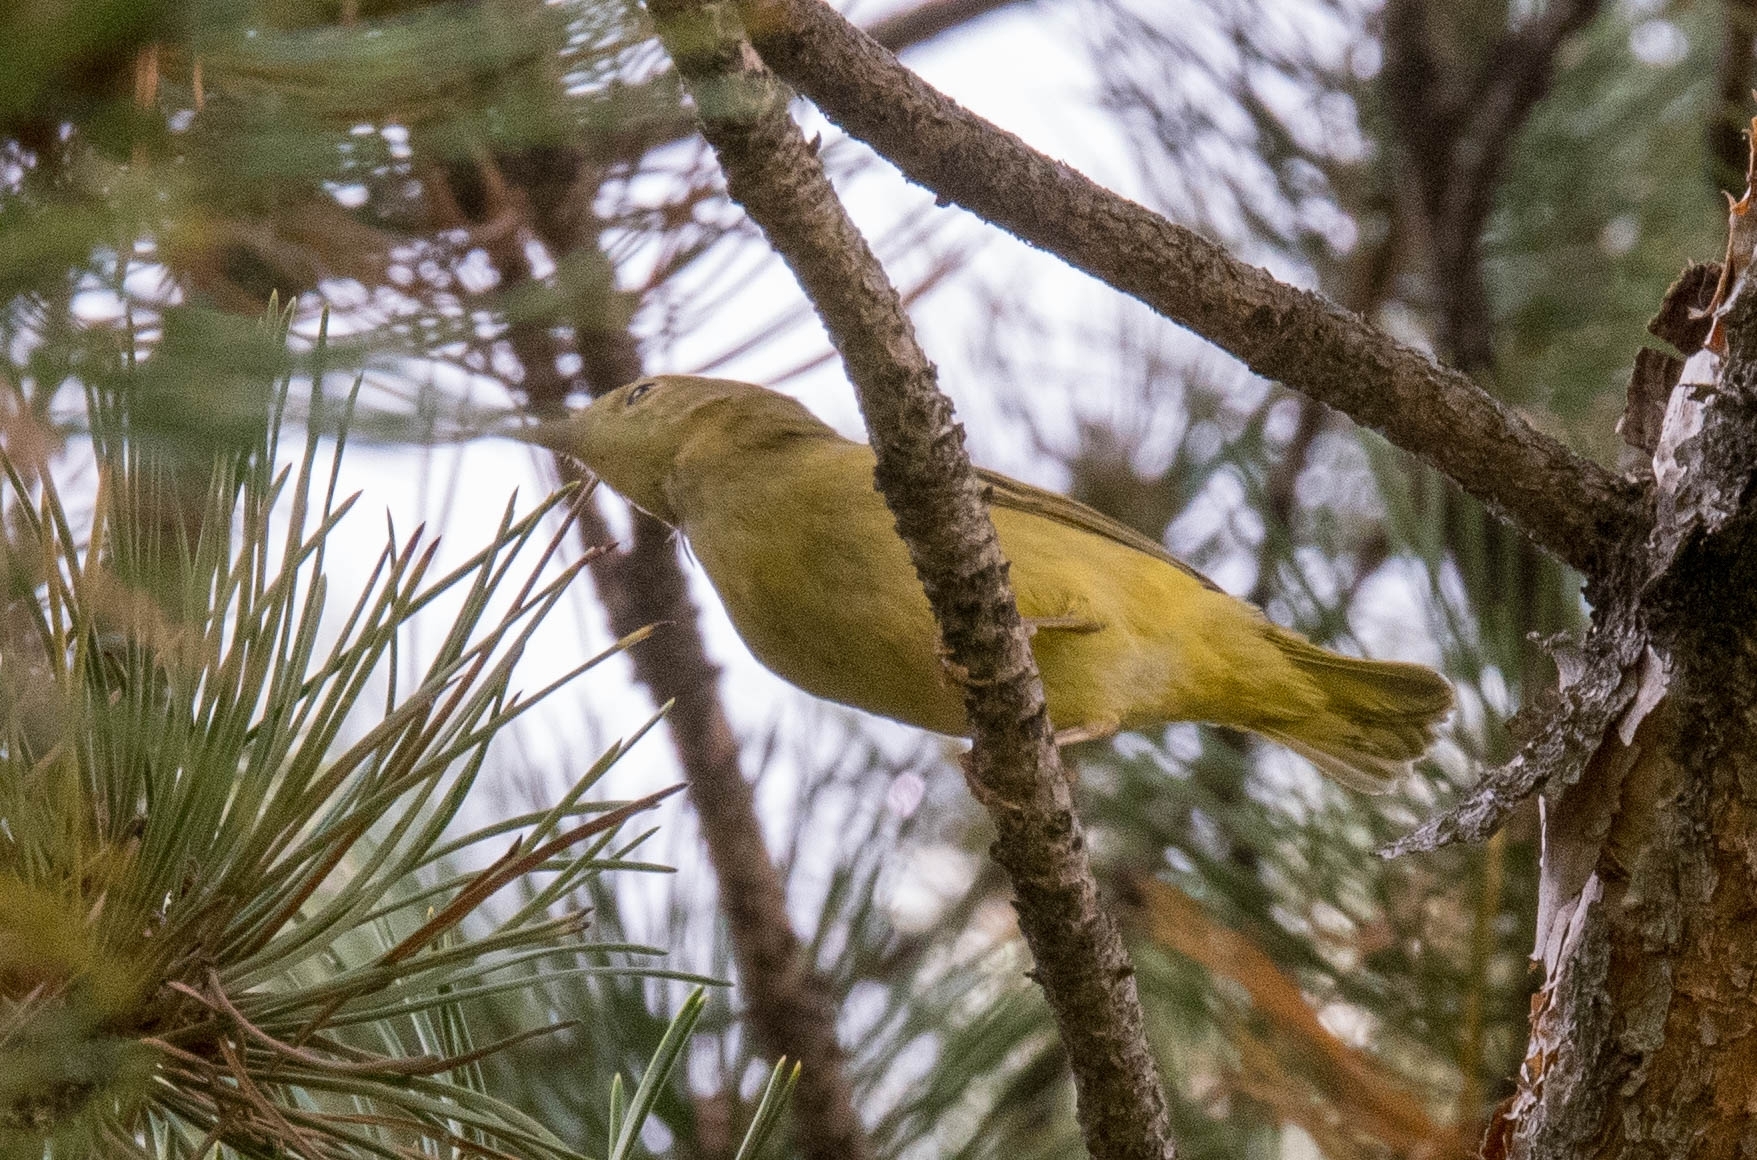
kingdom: Animalia
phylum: Chordata
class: Aves
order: Passeriformes
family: Parulidae
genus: Setophaga
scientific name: Setophaga petechia
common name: Yellow warbler
